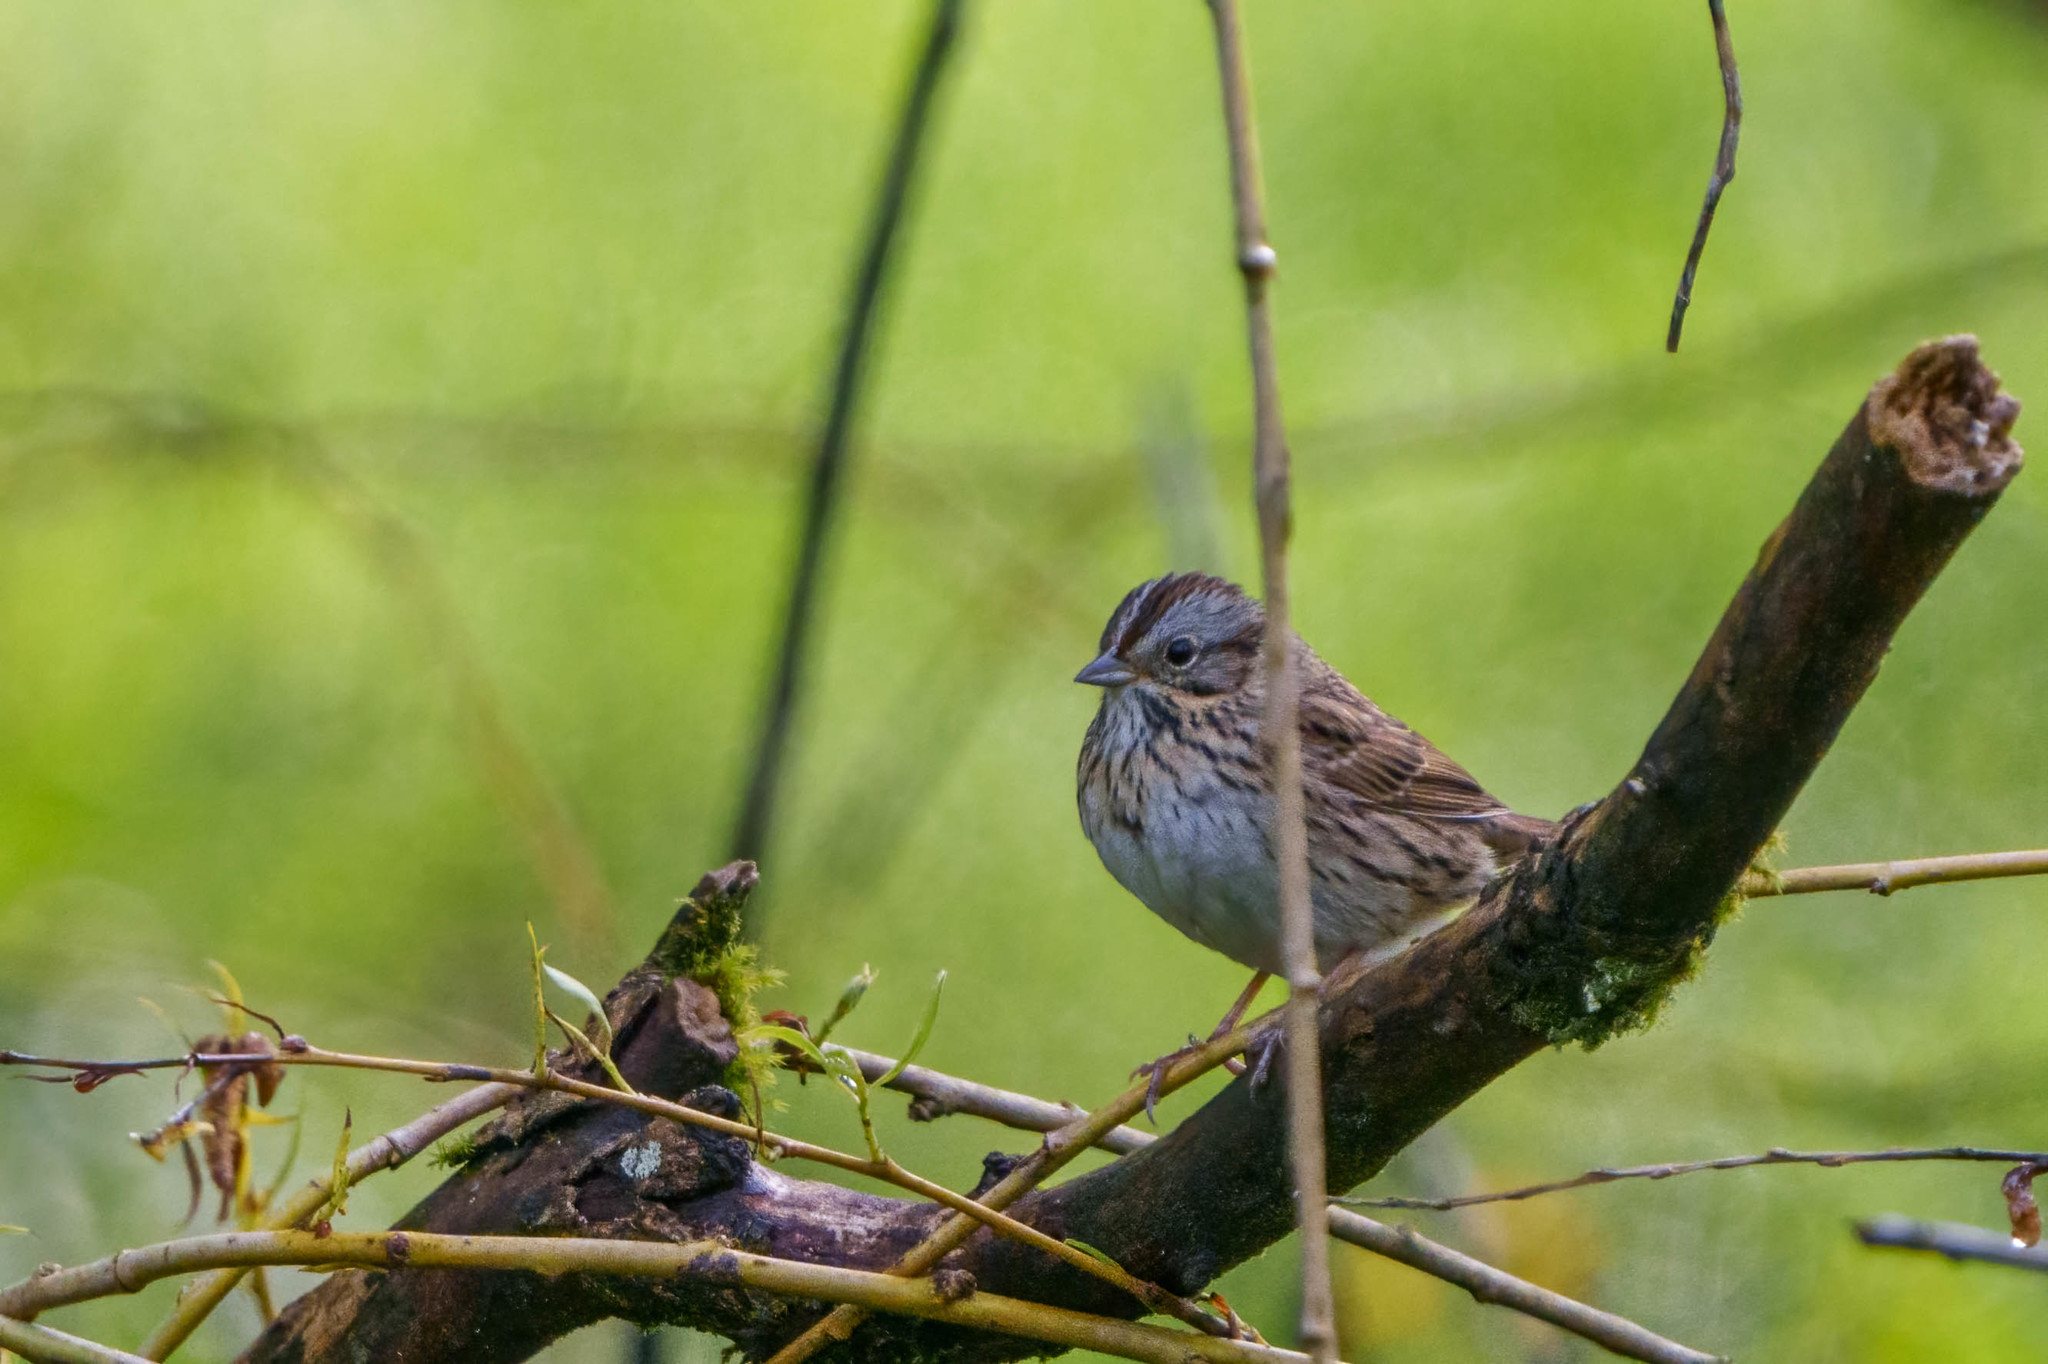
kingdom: Animalia
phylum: Chordata
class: Aves
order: Passeriformes
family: Passerellidae
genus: Melospiza
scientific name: Melospiza lincolnii
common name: Lincoln's sparrow
